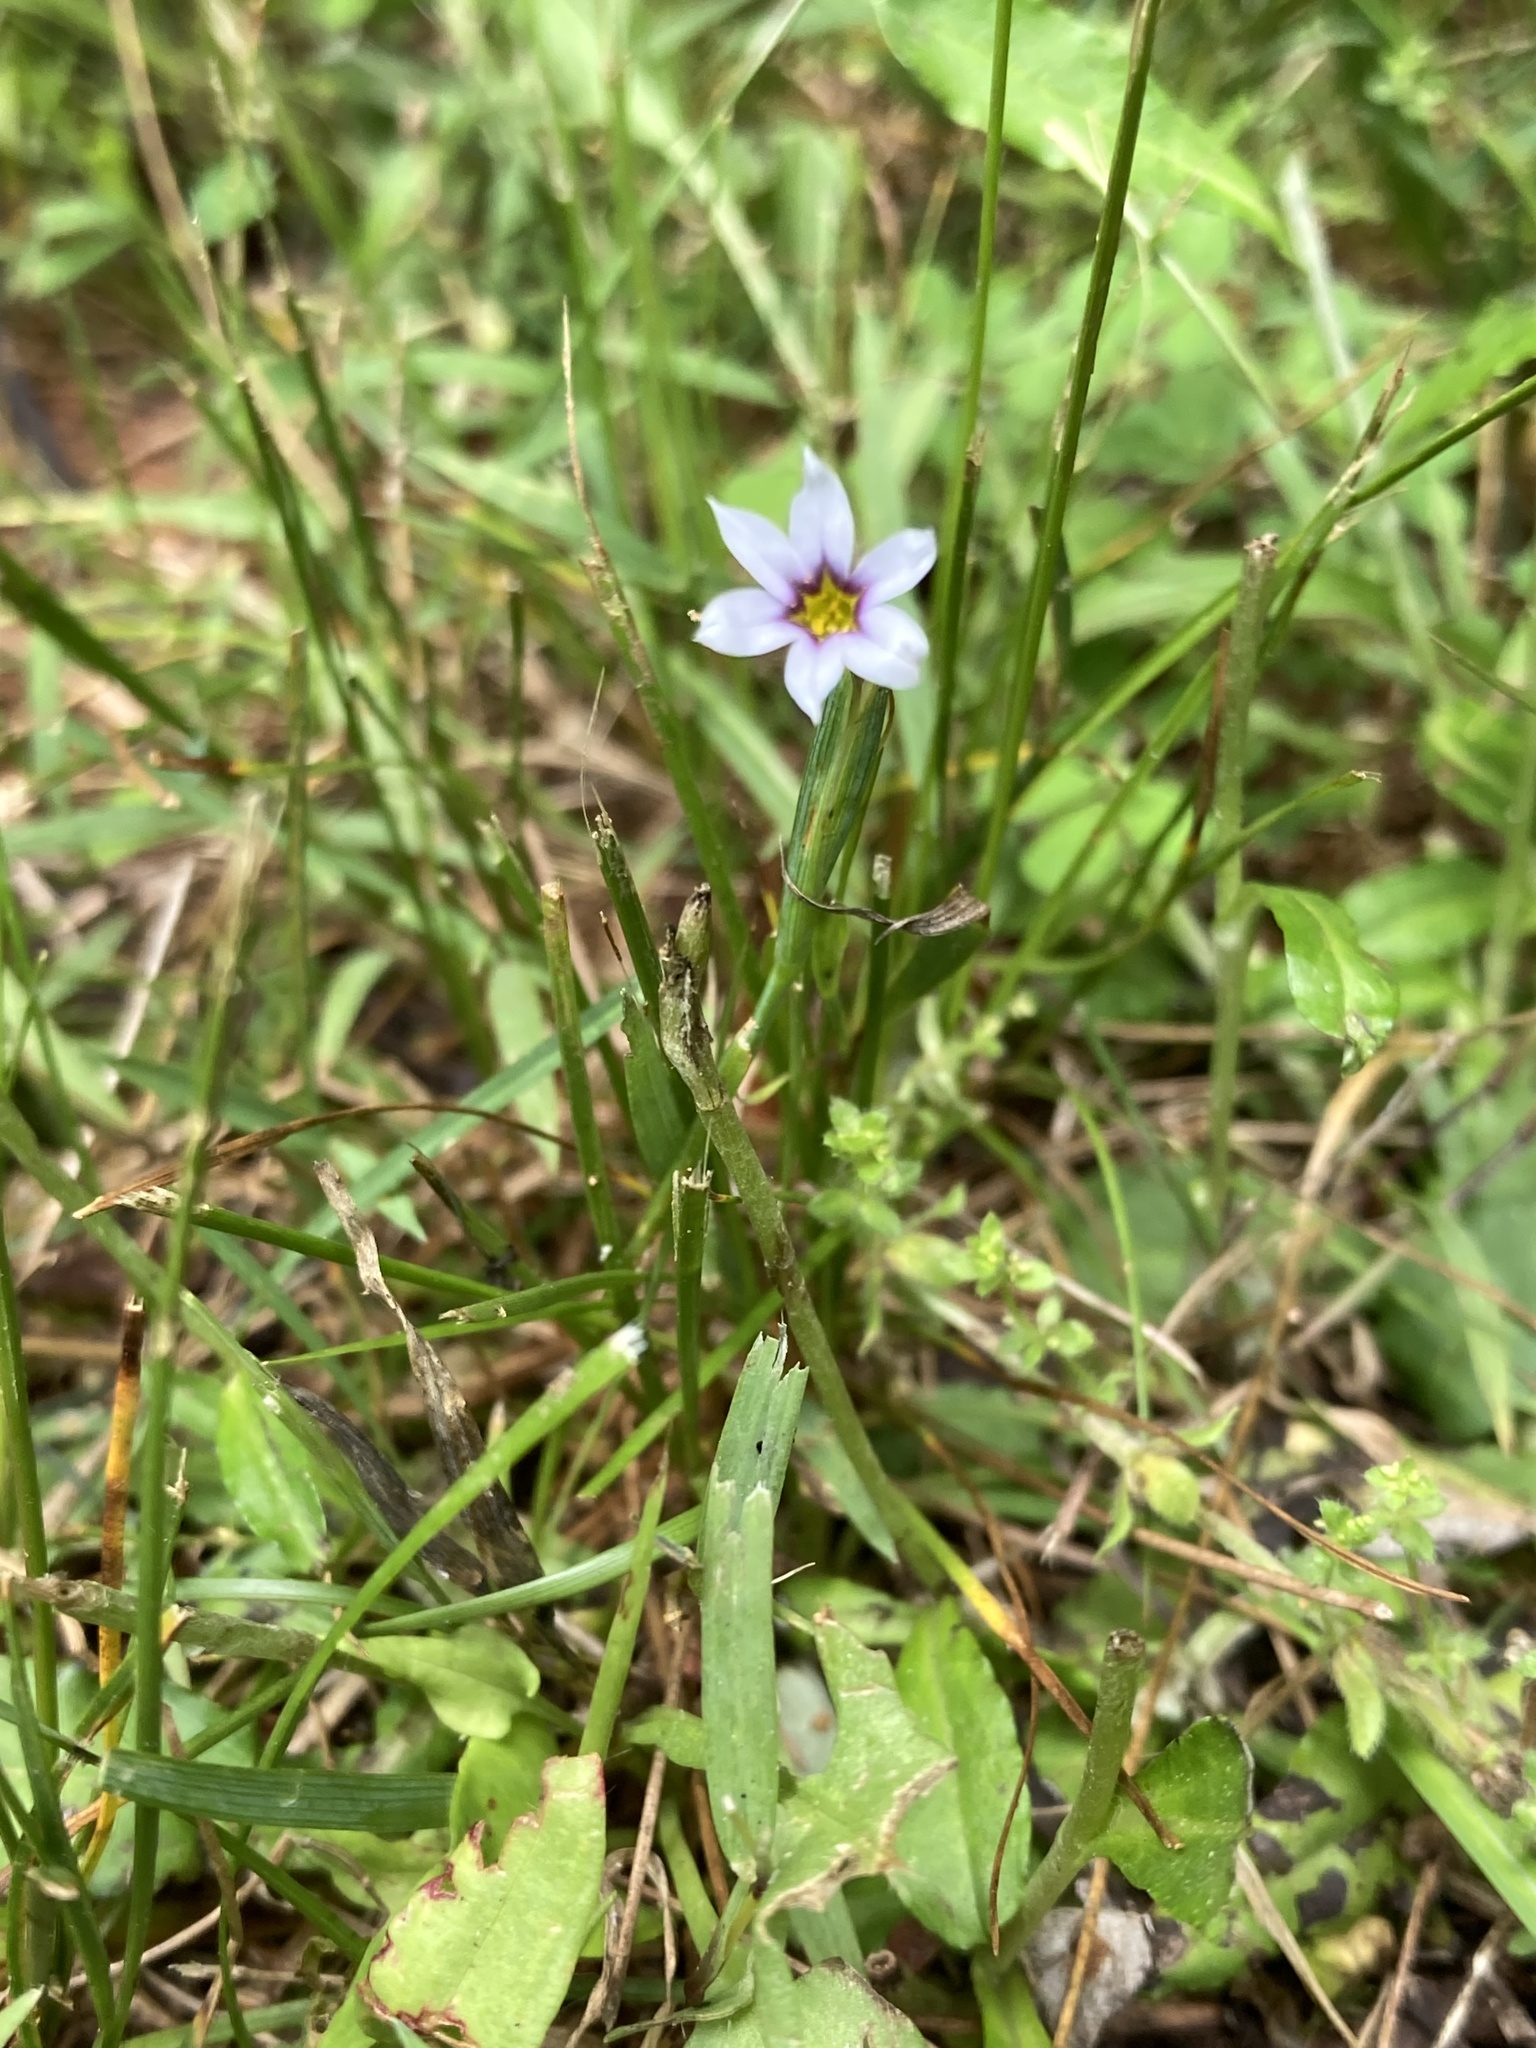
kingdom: Plantae
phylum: Tracheophyta
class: Liliopsida
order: Asparagales
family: Iridaceae
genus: Sisyrinchium
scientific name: Sisyrinchium micranthum
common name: Bermuda pigroot
